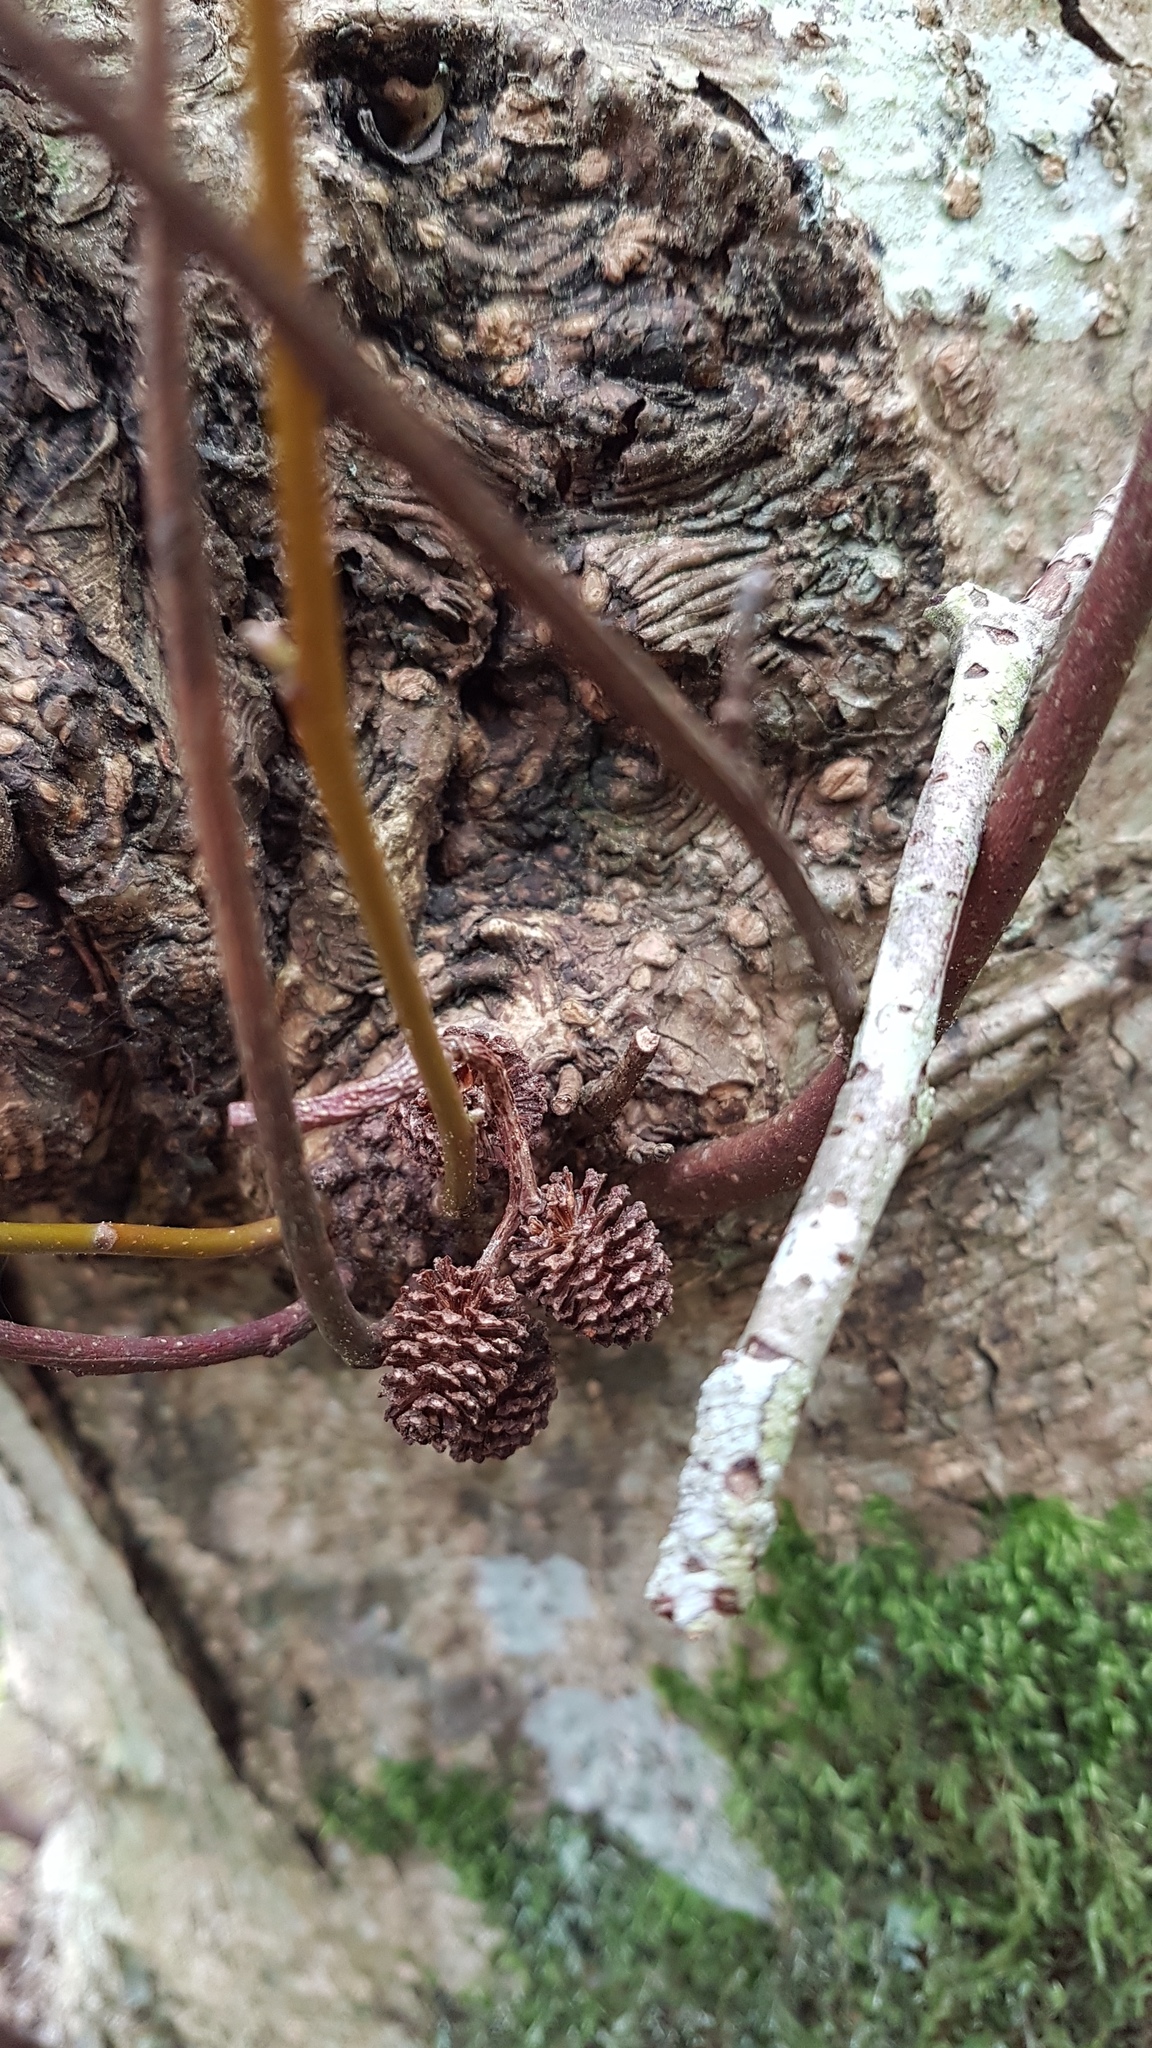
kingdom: Plantae
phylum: Tracheophyta
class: Magnoliopsida
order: Fagales
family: Betulaceae
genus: Alnus
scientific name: Alnus rubra
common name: Red alder
